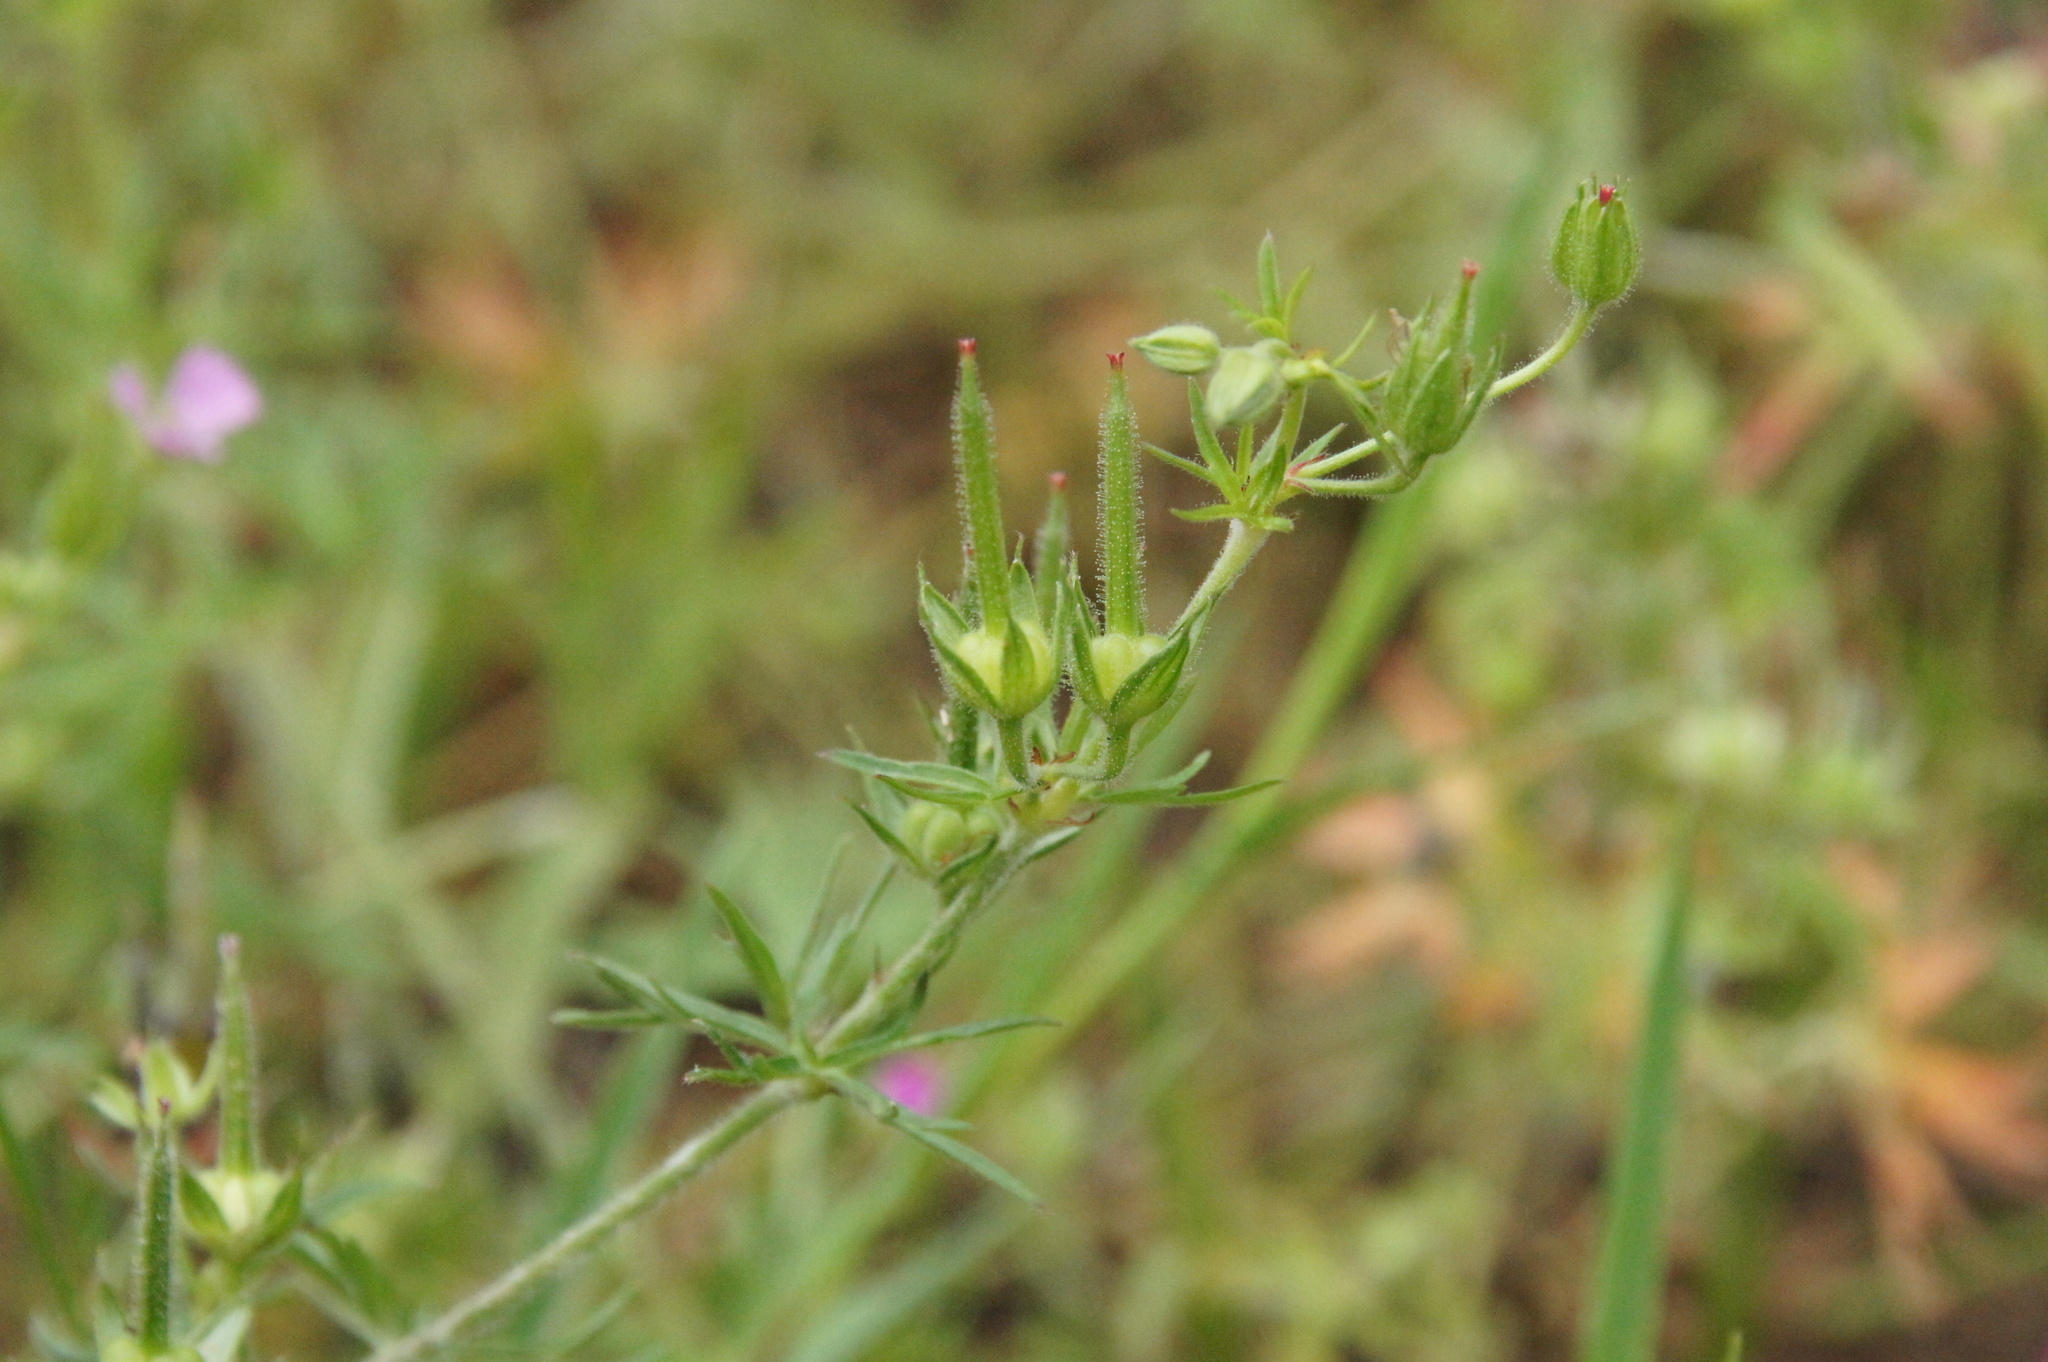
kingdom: Plantae
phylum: Tracheophyta
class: Magnoliopsida
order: Geraniales
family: Geraniaceae
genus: Geranium
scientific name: Geranium dissectum
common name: Cut-leaved crane's-bill
